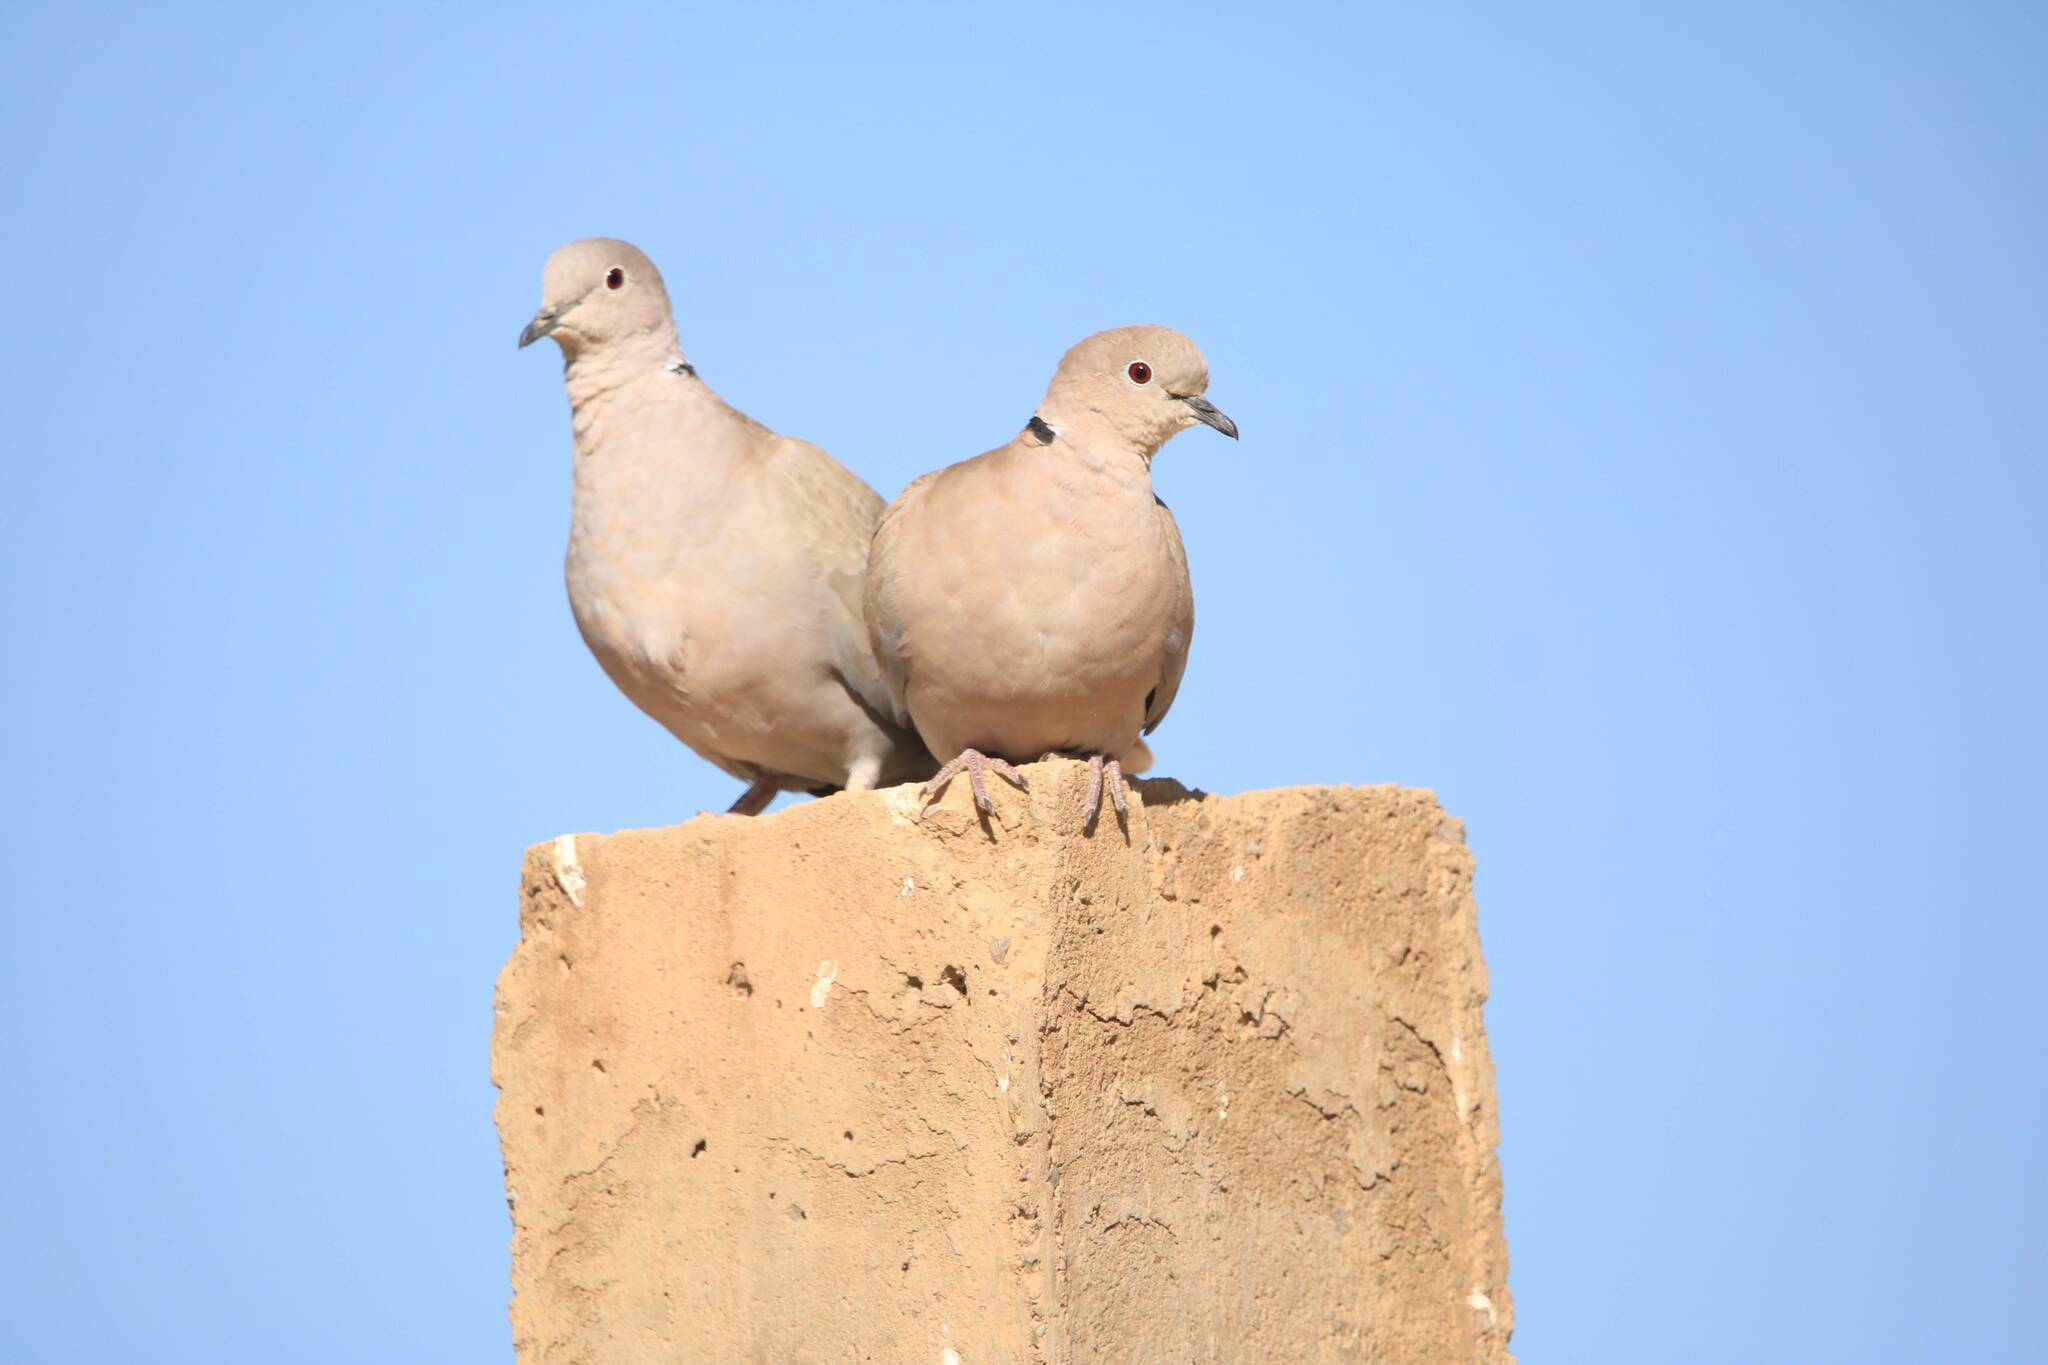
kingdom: Animalia
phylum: Chordata
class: Aves
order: Columbiformes
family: Columbidae
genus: Streptopelia
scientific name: Streptopelia decaocto
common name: Eurasian collared dove
